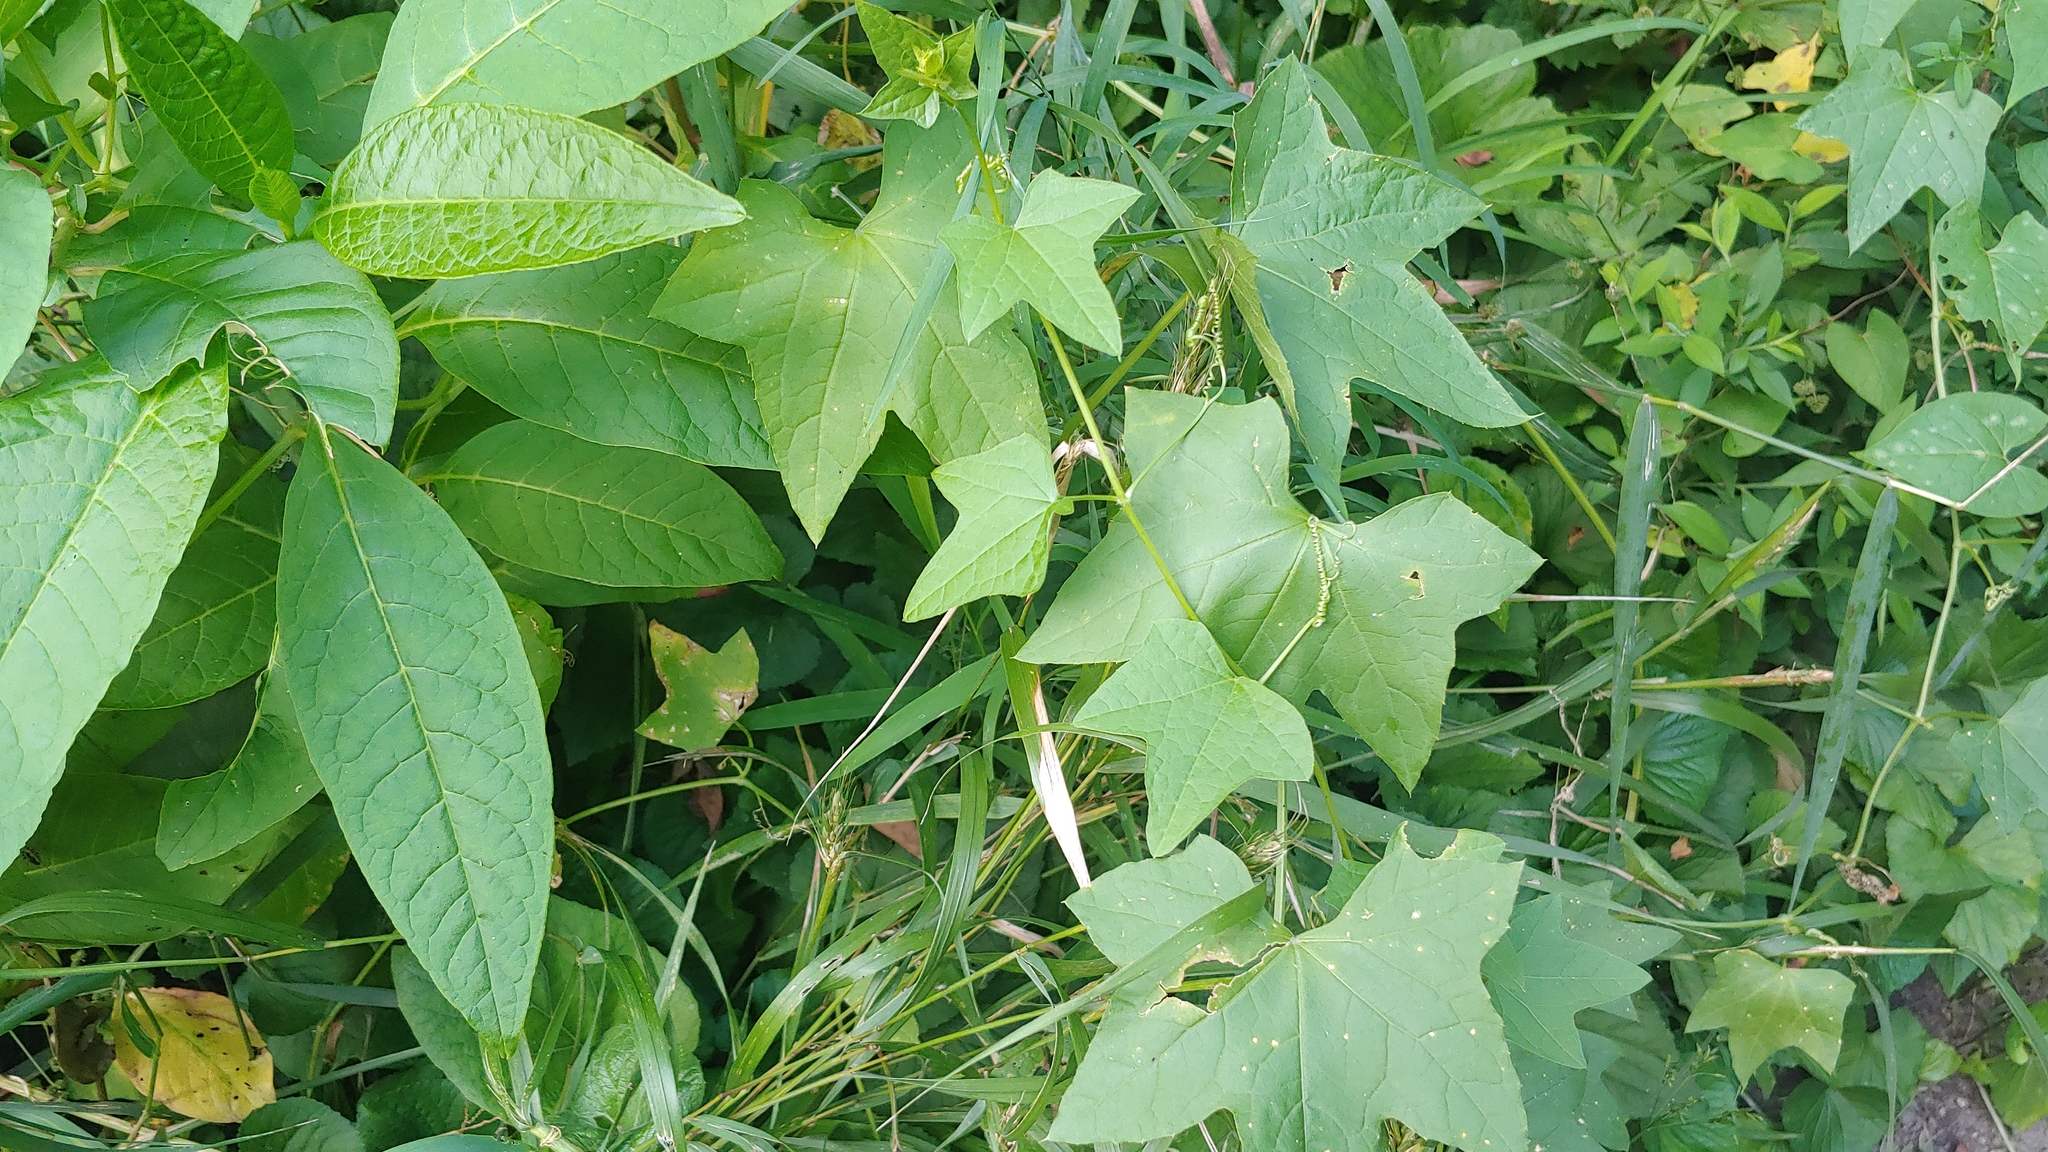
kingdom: Plantae
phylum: Tracheophyta
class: Magnoliopsida
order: Cucurbitales
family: Cucurbitaceae
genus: Echinocystis
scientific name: Echinocystis lobata
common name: Wild cucumber
